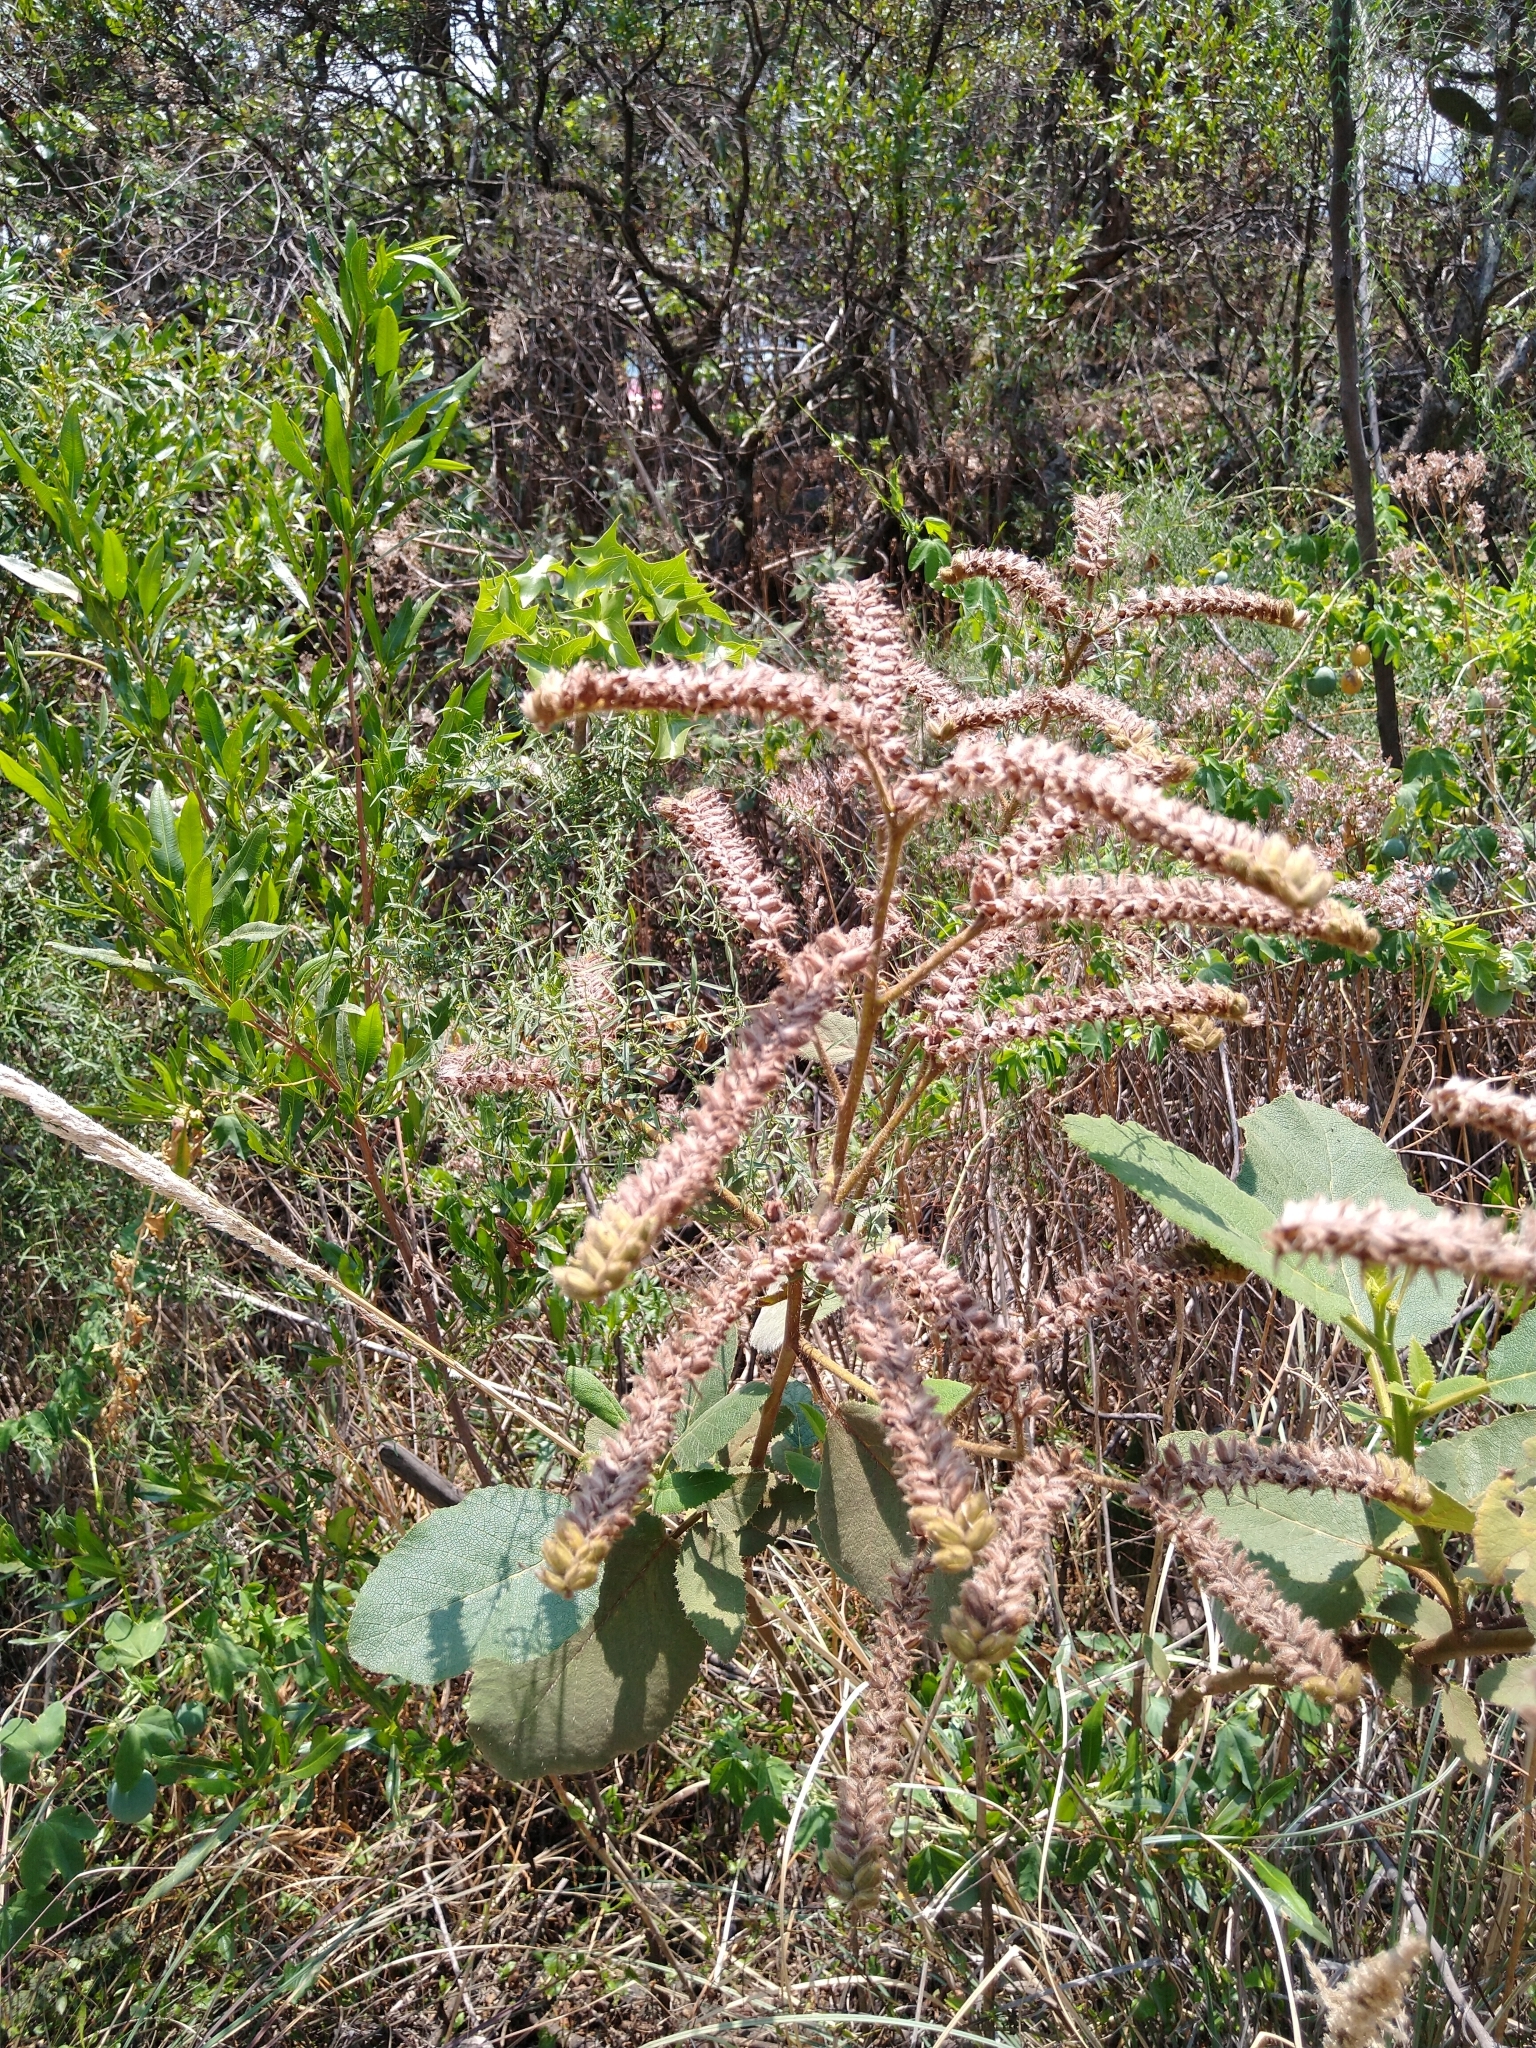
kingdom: Plantae
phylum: Tracheophyta
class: Magnoliopsida
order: Boraginales
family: Namaceae
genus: Wigandia
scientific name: Wigandia urens
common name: Caracus wigandia
